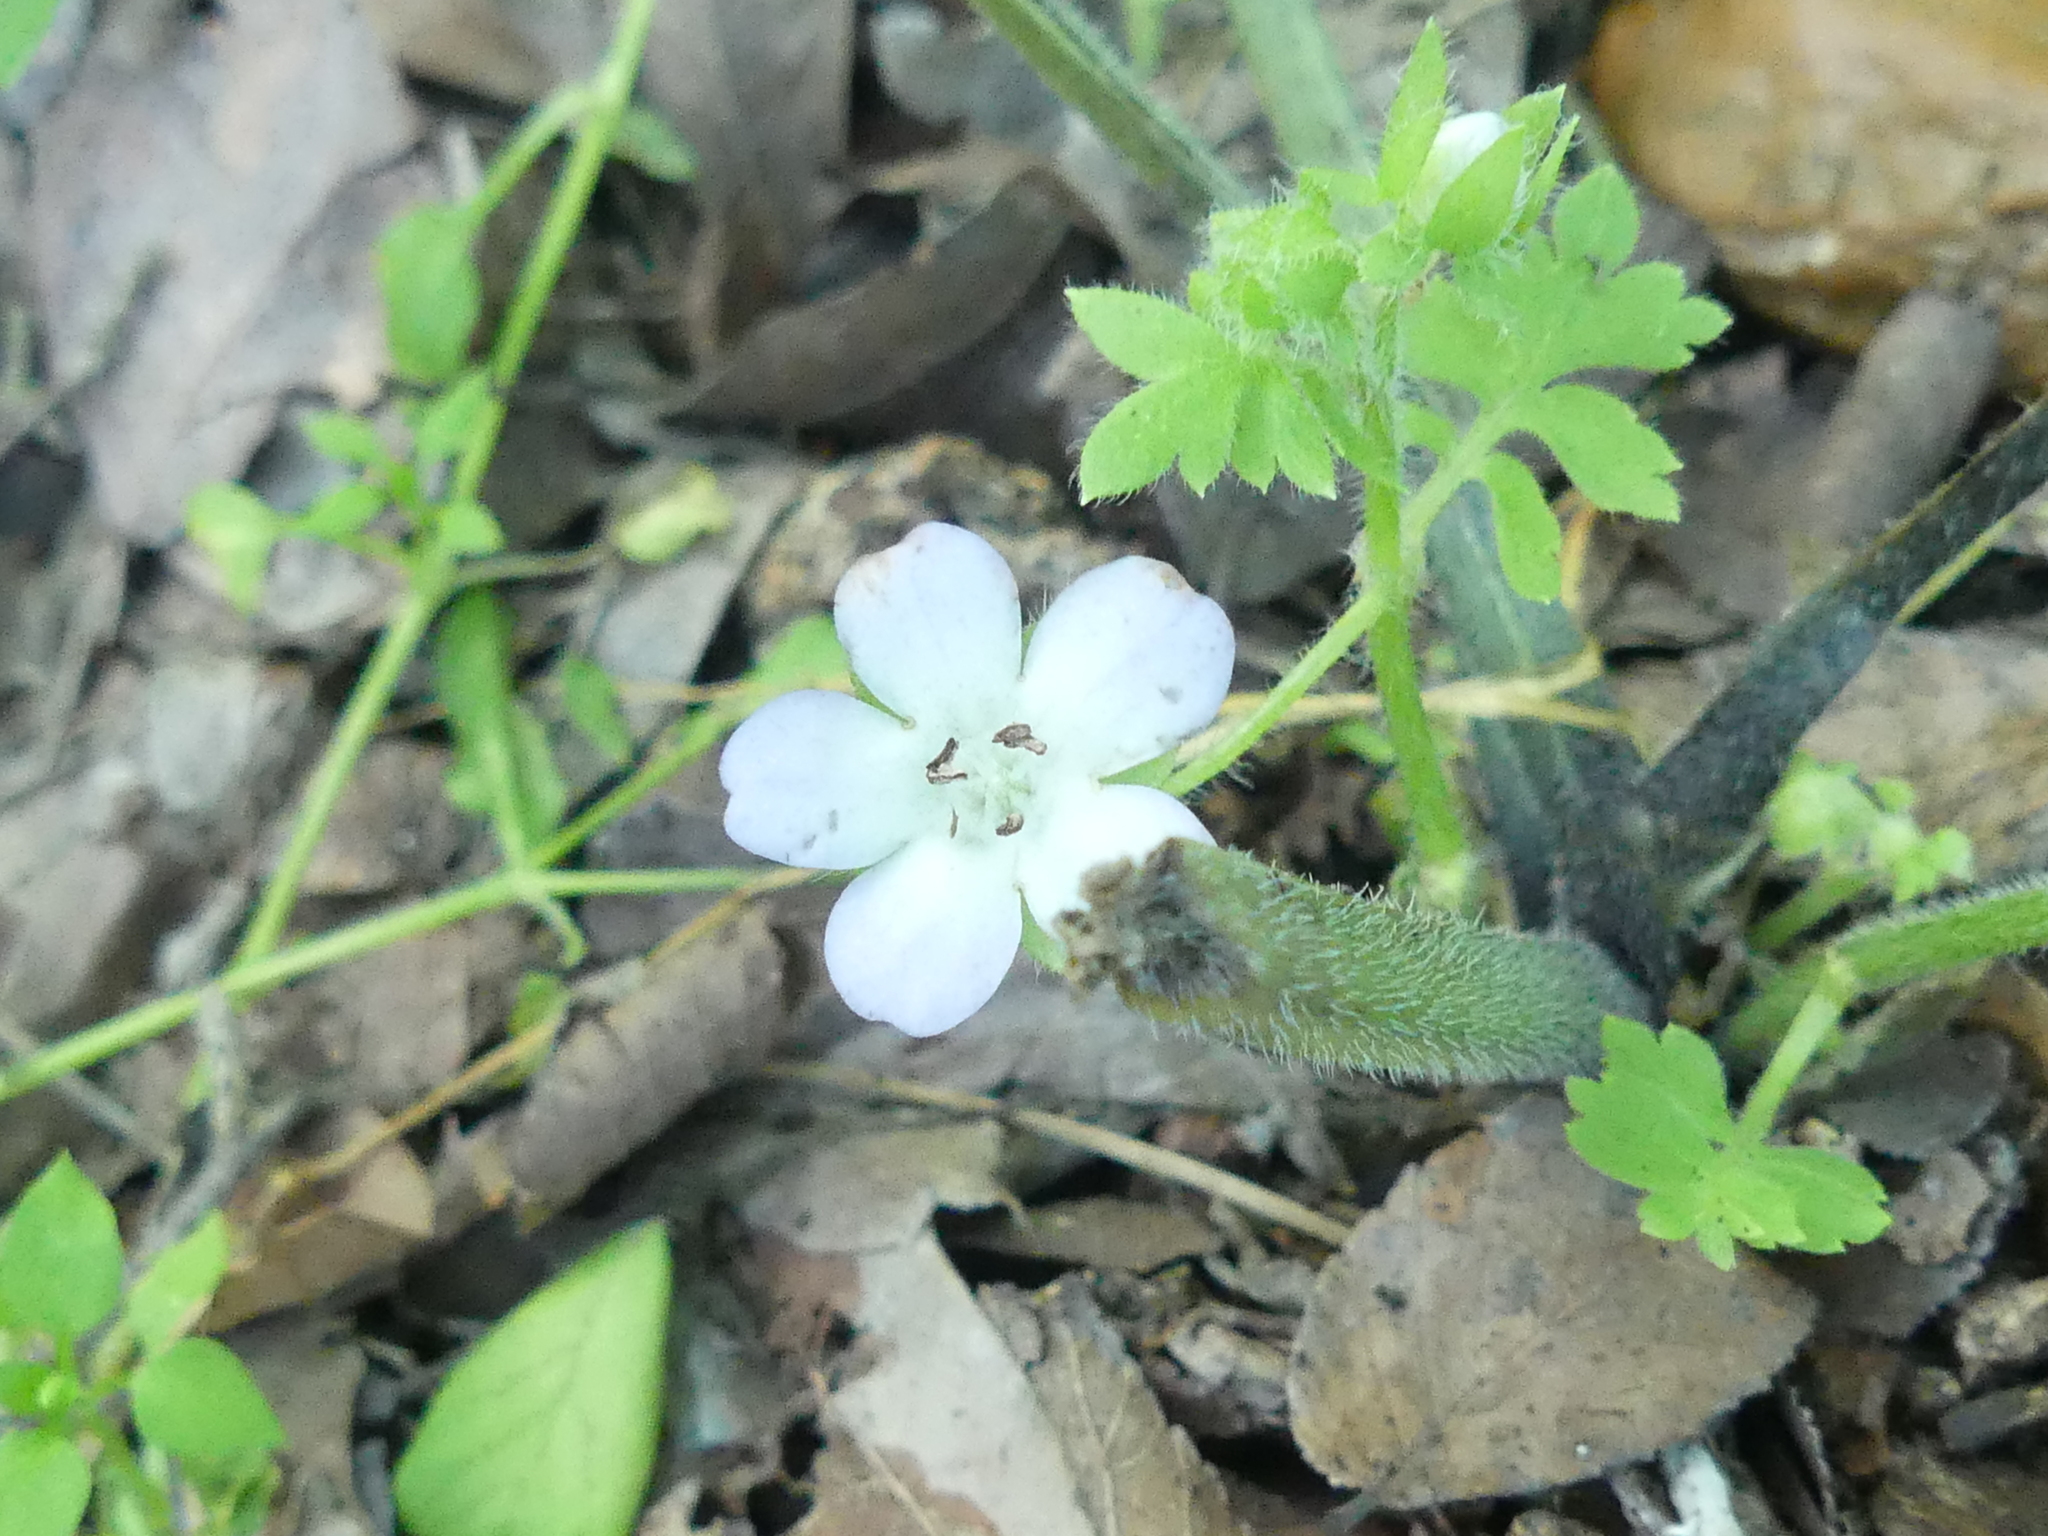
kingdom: Plantae
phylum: Tracheophyta
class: Magnoliopsida
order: Boraginales
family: Hydrophyllaceae
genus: Nemophila
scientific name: Nemophila phacelioides
